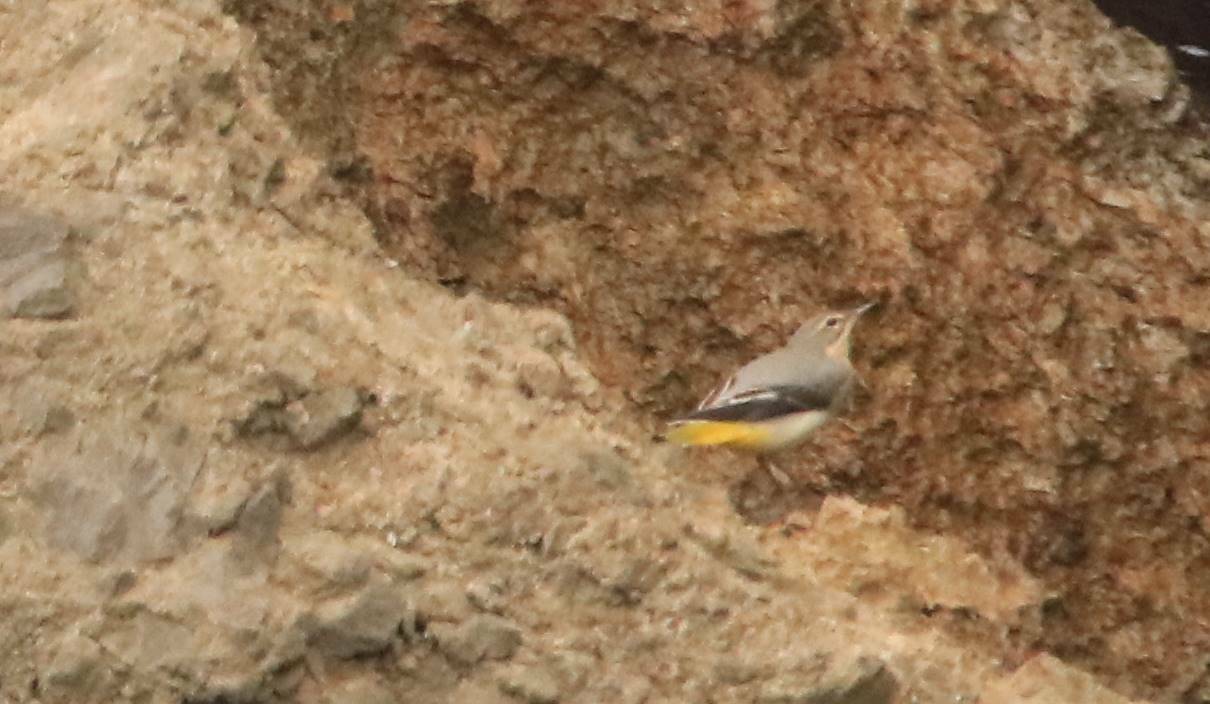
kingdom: Animalia
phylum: Chordata
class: Aves
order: Passeriformes
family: Motacillidae
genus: Motacilla
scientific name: Motacilla cinerea
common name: Grey wagtail
